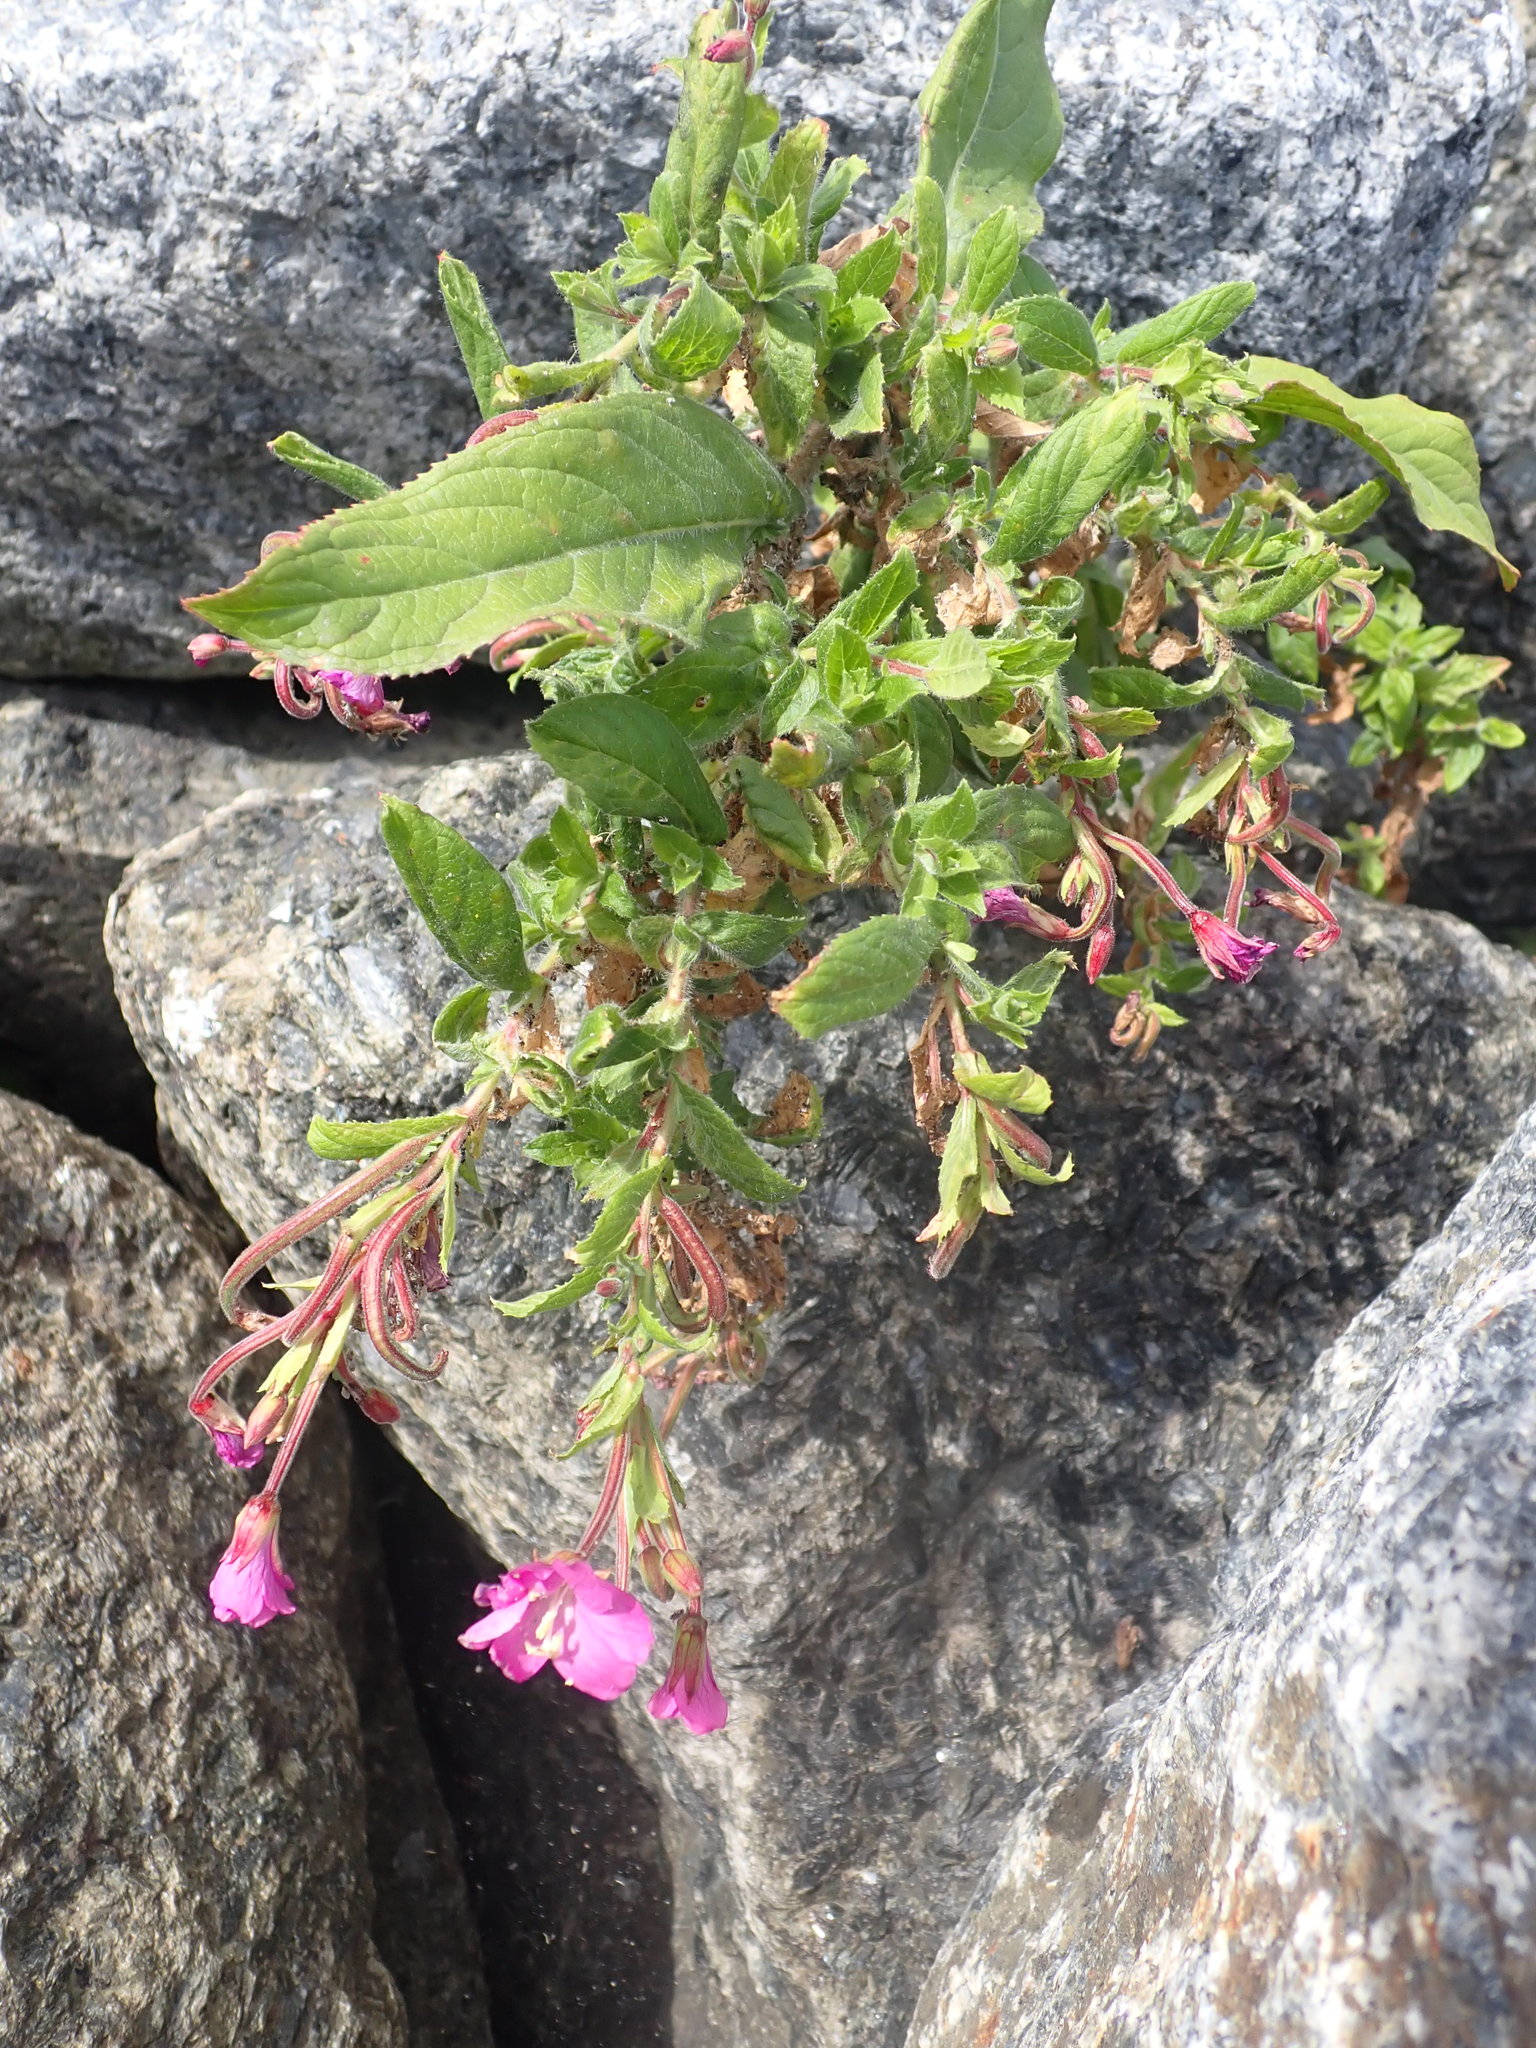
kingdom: Plantae
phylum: Tracheophyta
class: Magnoliopsida
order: Myrtales
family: Onagraceae
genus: Epilobium
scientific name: Epilobium hirsutum
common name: Great willowherb
